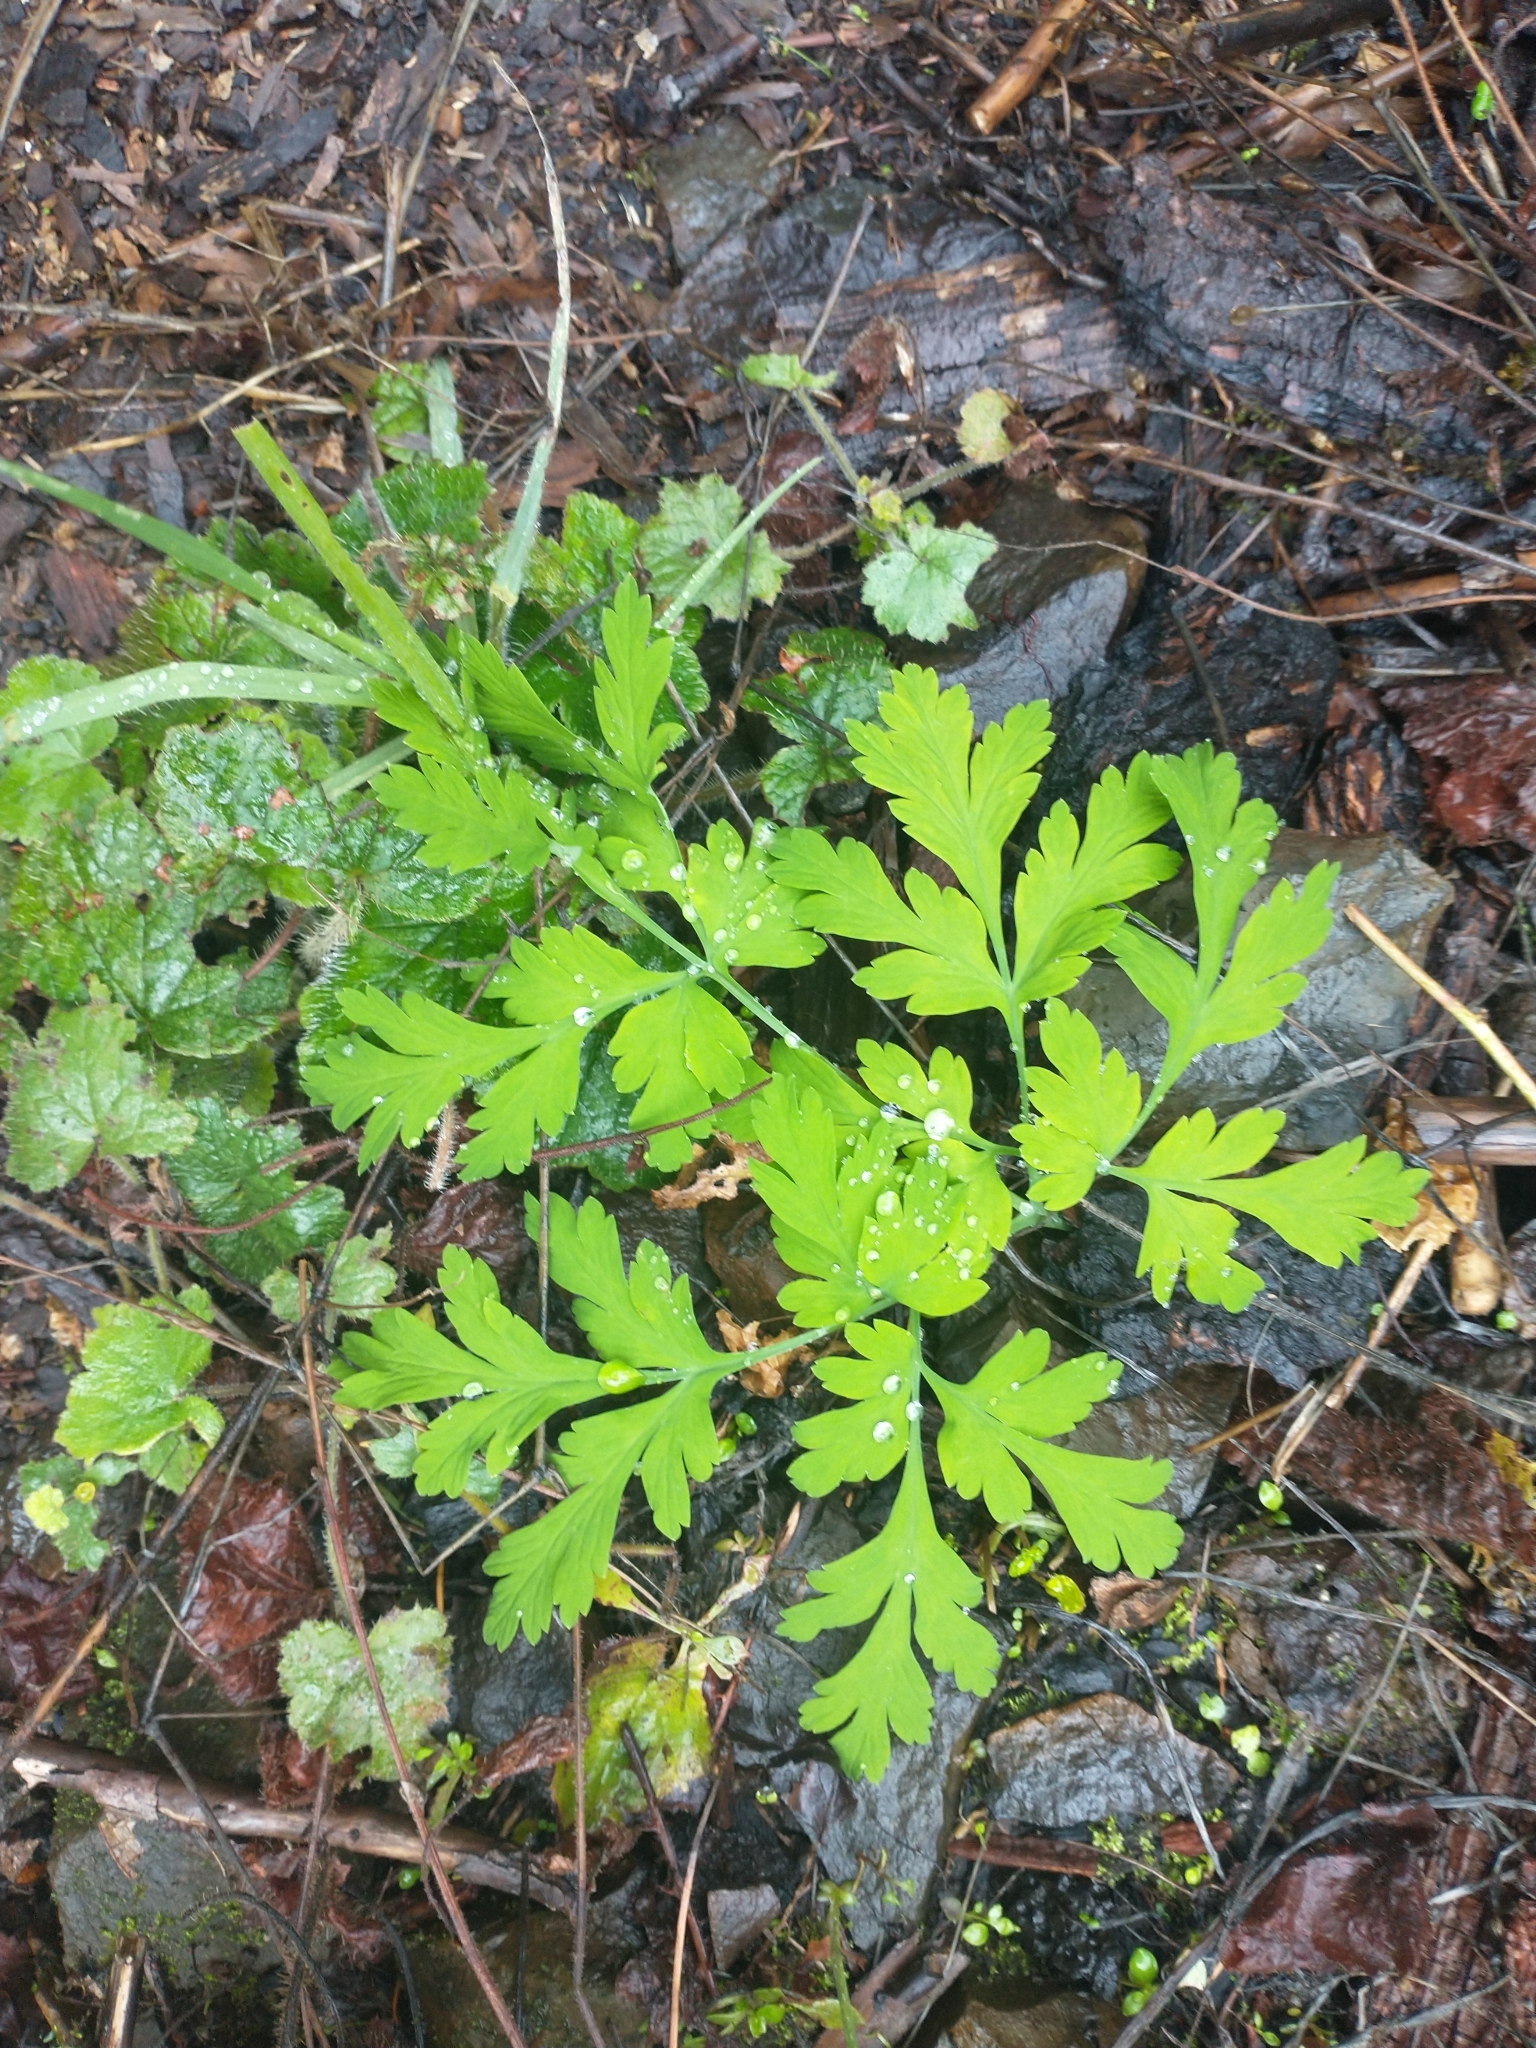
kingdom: Plantae
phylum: Tracheophyta
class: Magnoliopsida
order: Ranunculales
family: Papaveraceae
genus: Dicentra
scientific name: Dicentra formosa
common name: Bleeding-heart
